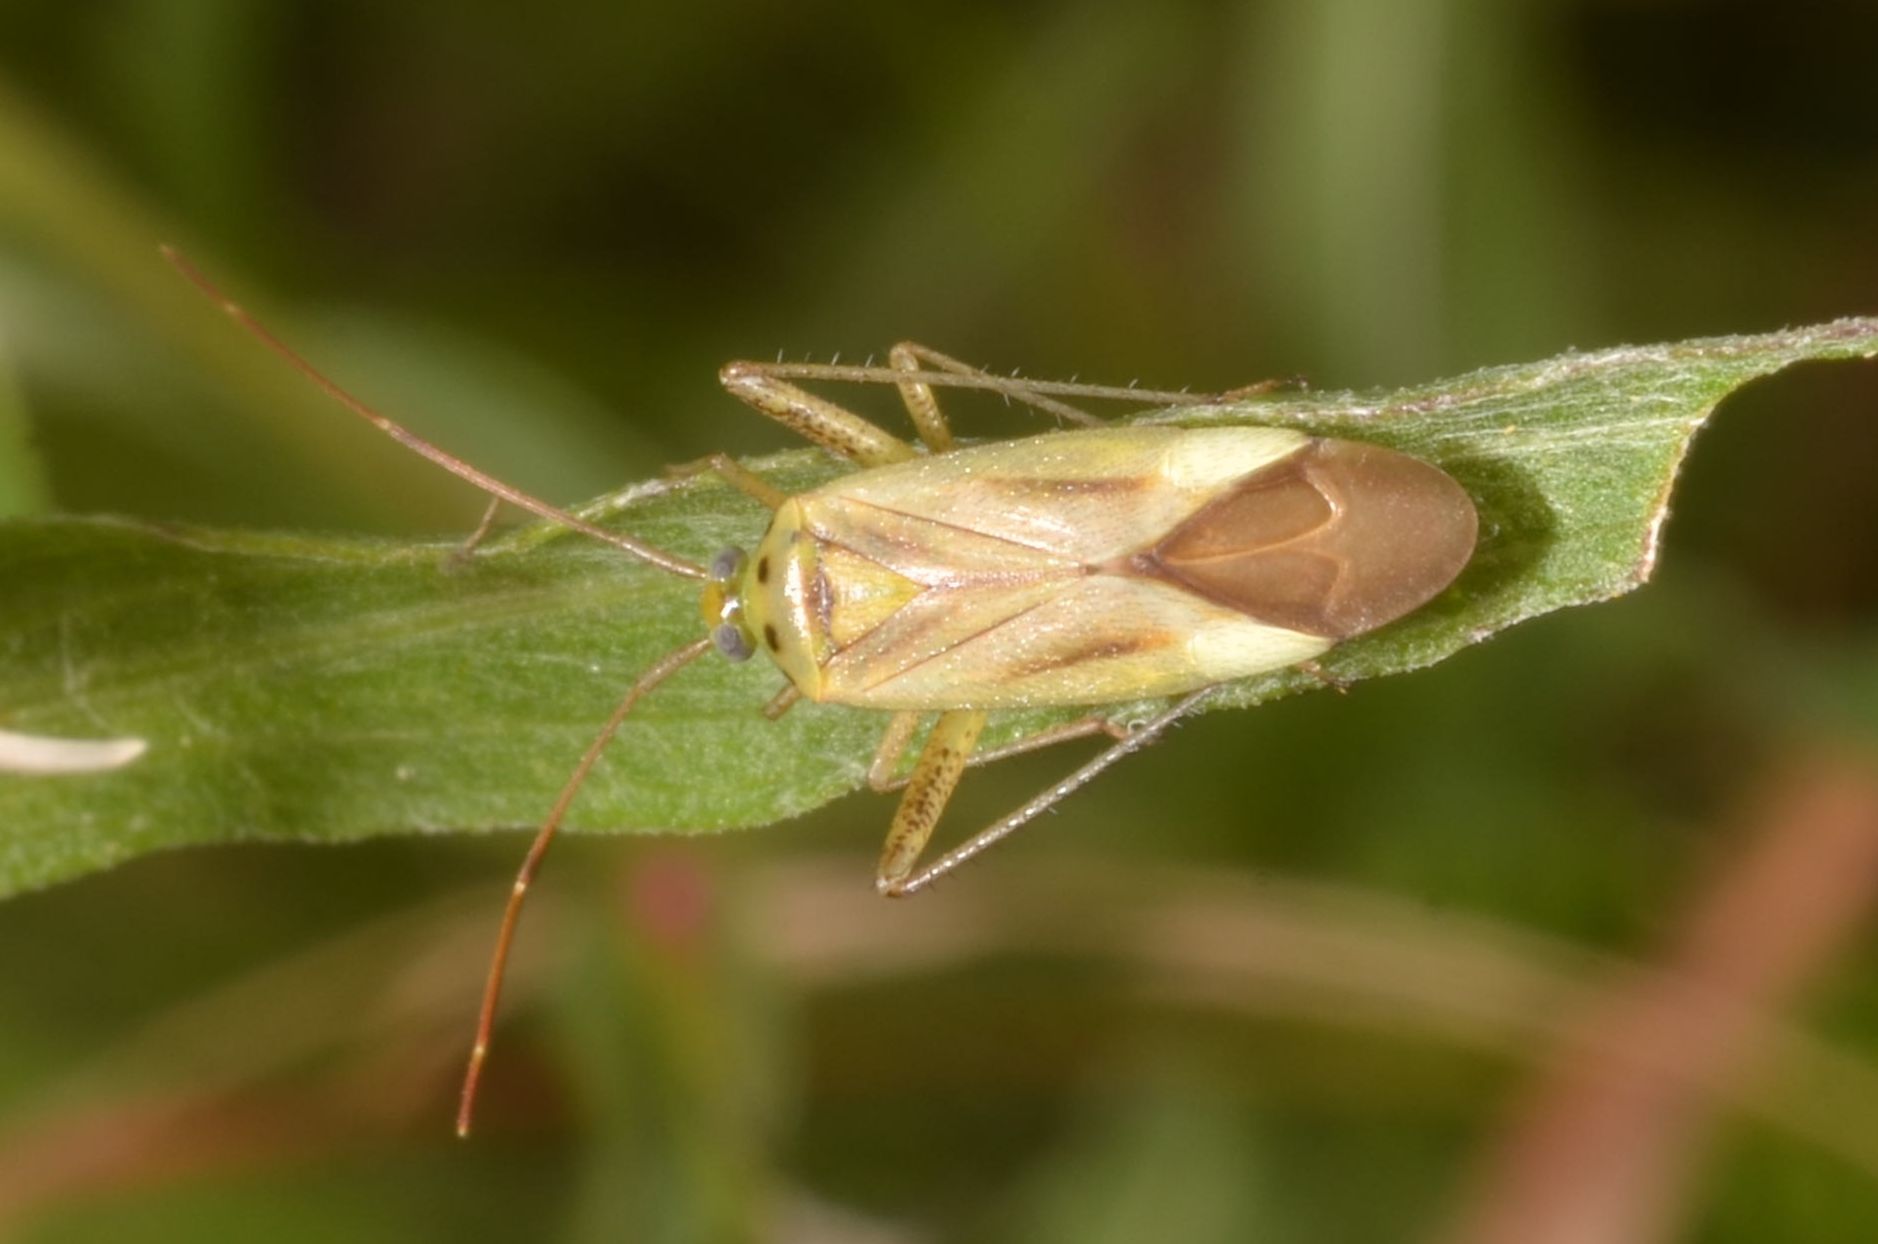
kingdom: Animalia
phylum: Arthropoda
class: Insecta
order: Hemiptera
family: Miridae
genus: Adelphocoris
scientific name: Adelphocoris quadripunctatus
